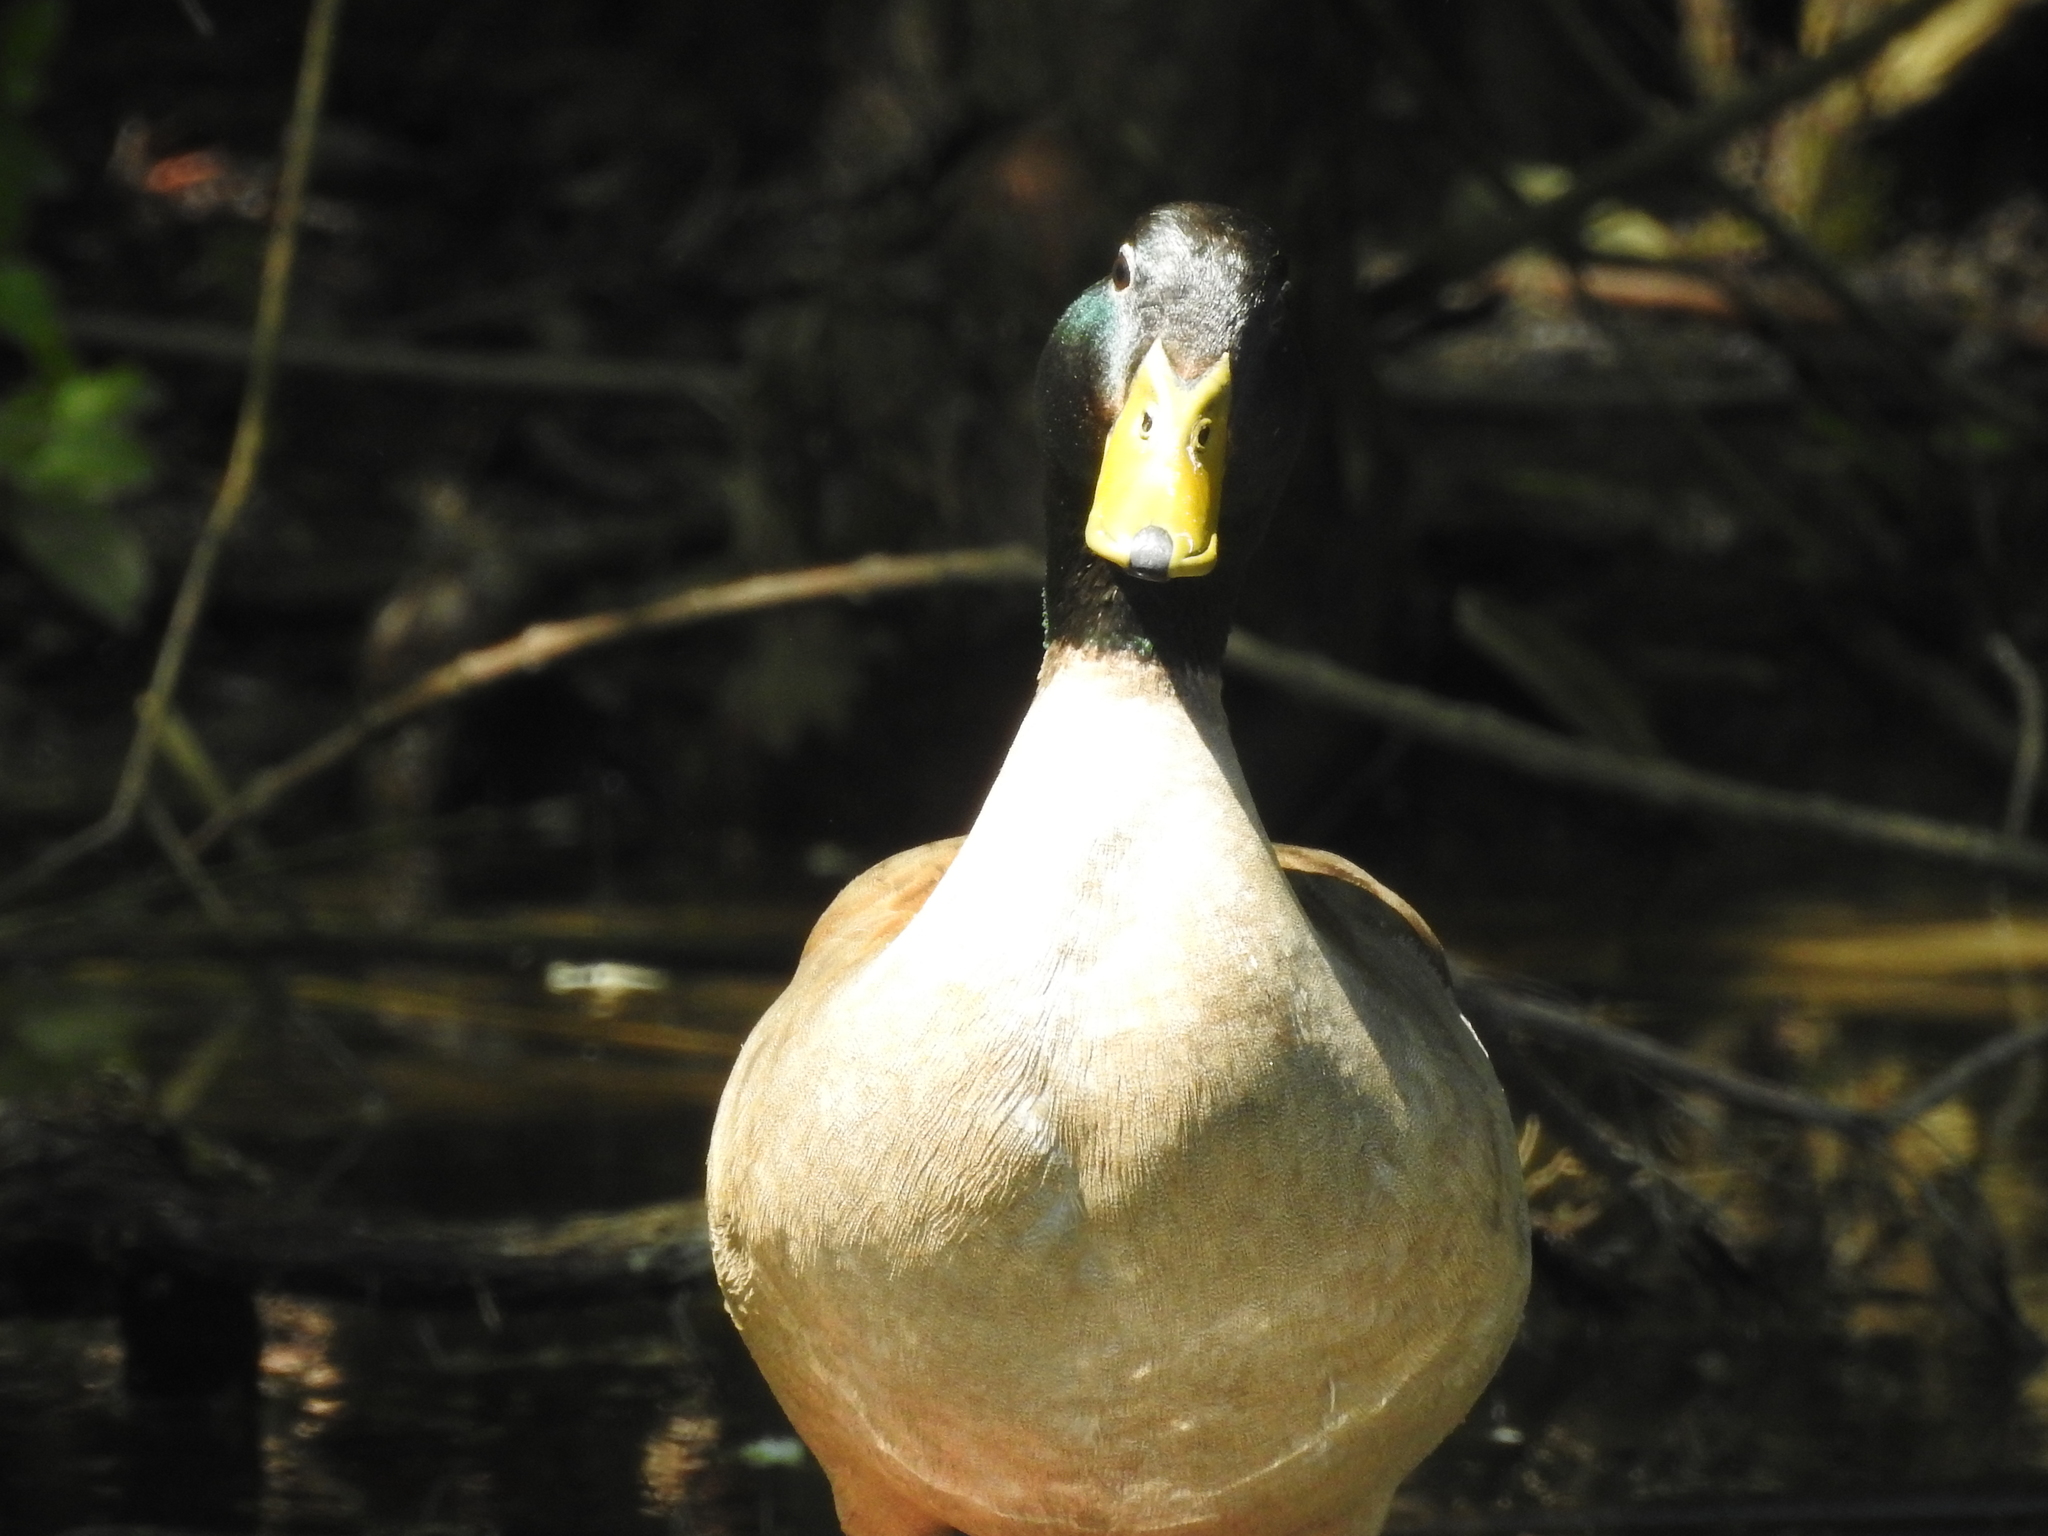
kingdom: Animalia
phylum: Chordata
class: Aves
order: Anseriformes
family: Anatidae
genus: Anas
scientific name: Anas platyrhynchos
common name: Mallard
